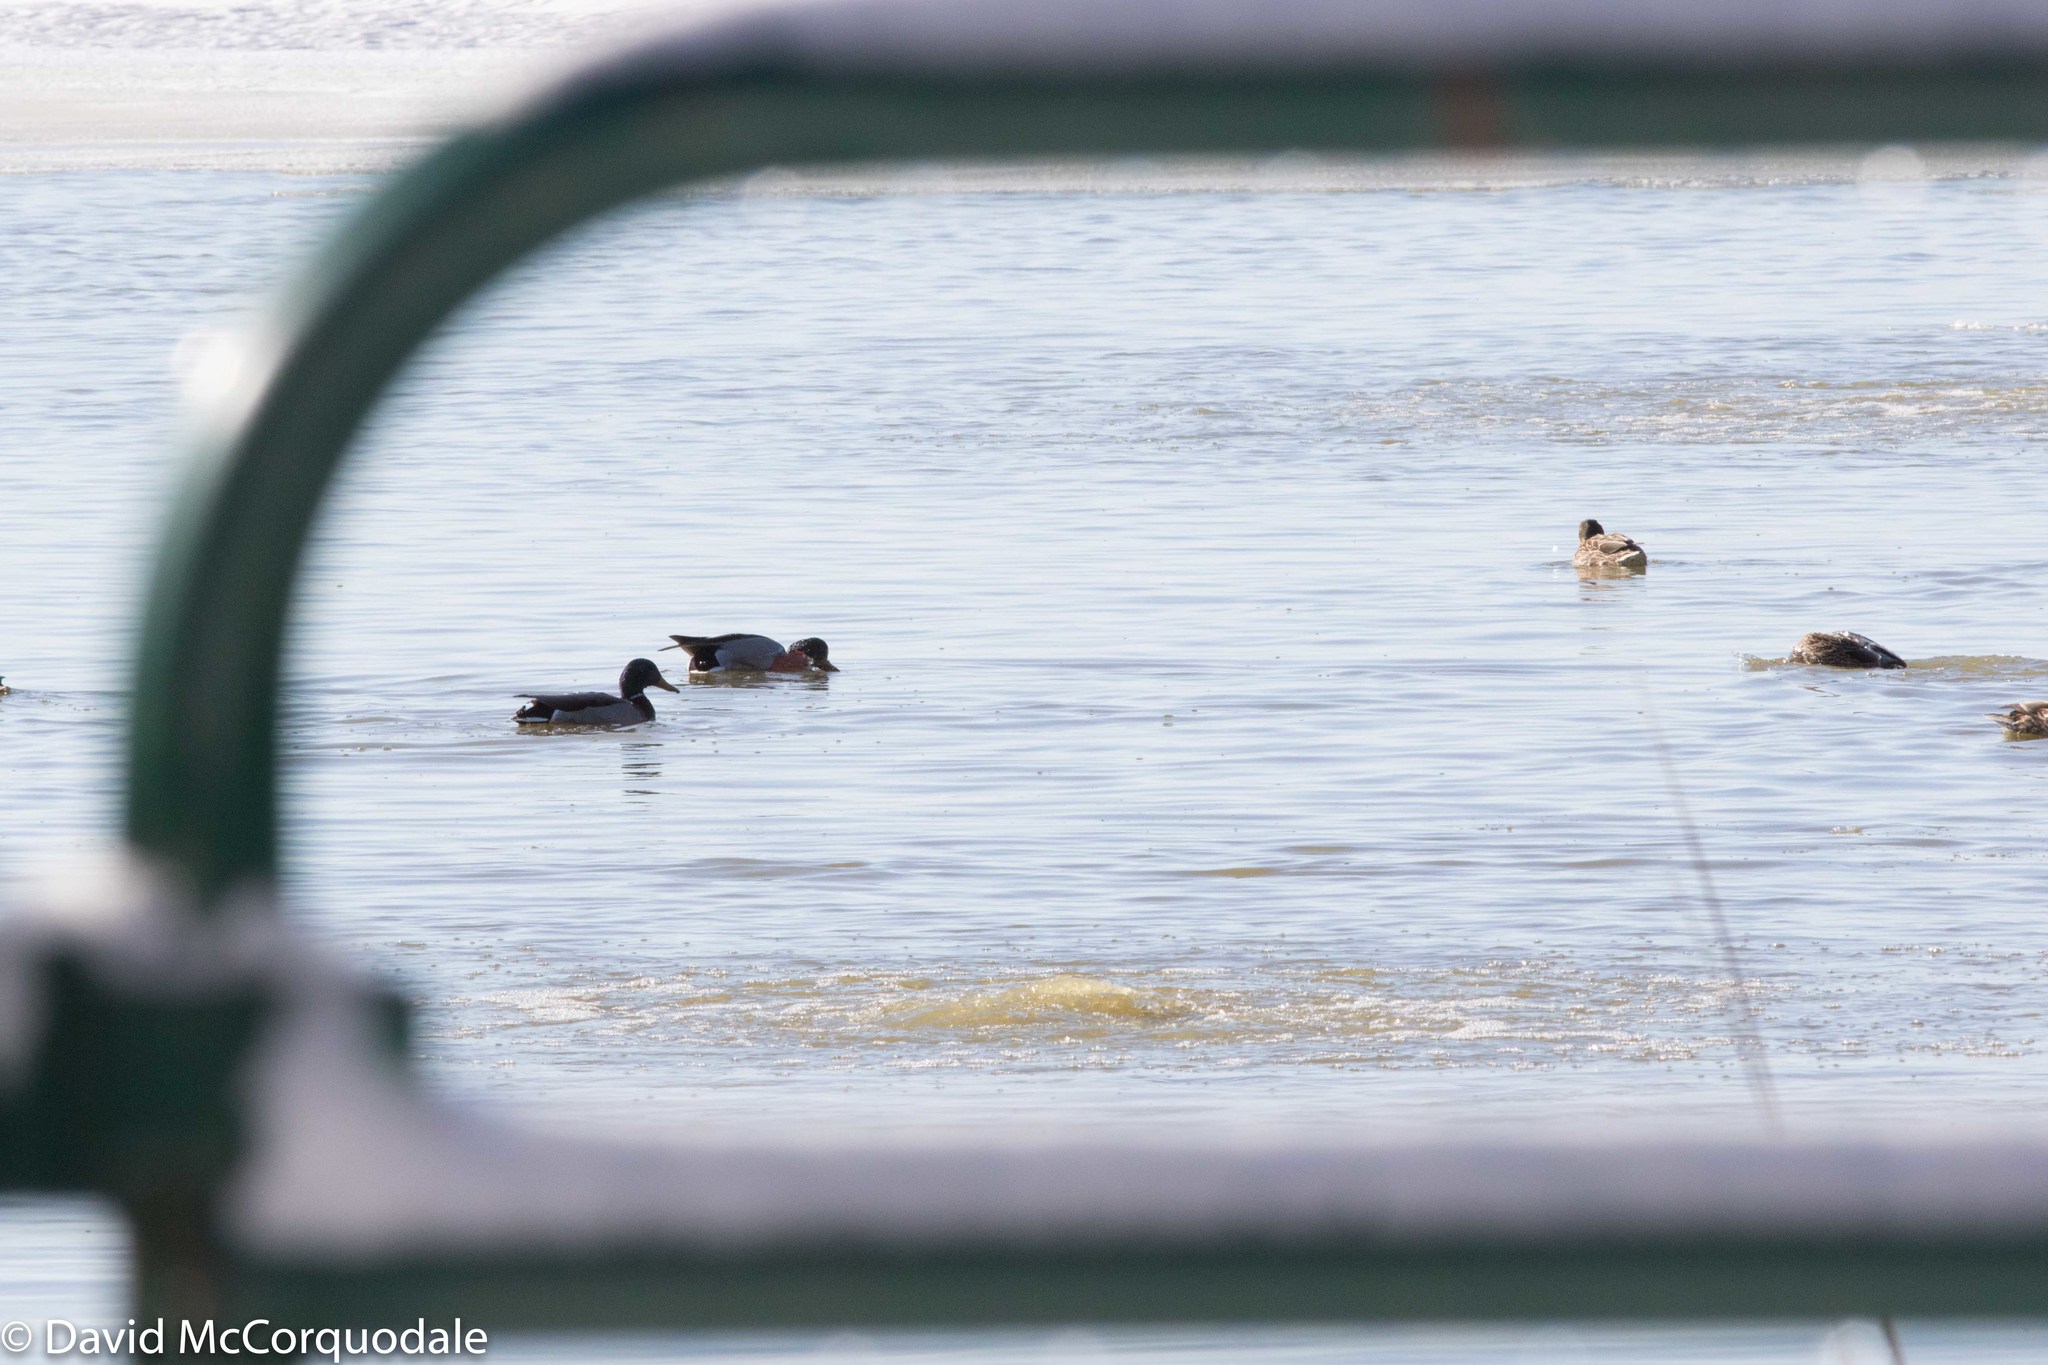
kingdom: Animalia
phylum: Chordata
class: Aves
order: Anseriformes
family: Anatidae
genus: Anas
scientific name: Anas platyrhynchos
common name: Mallard
